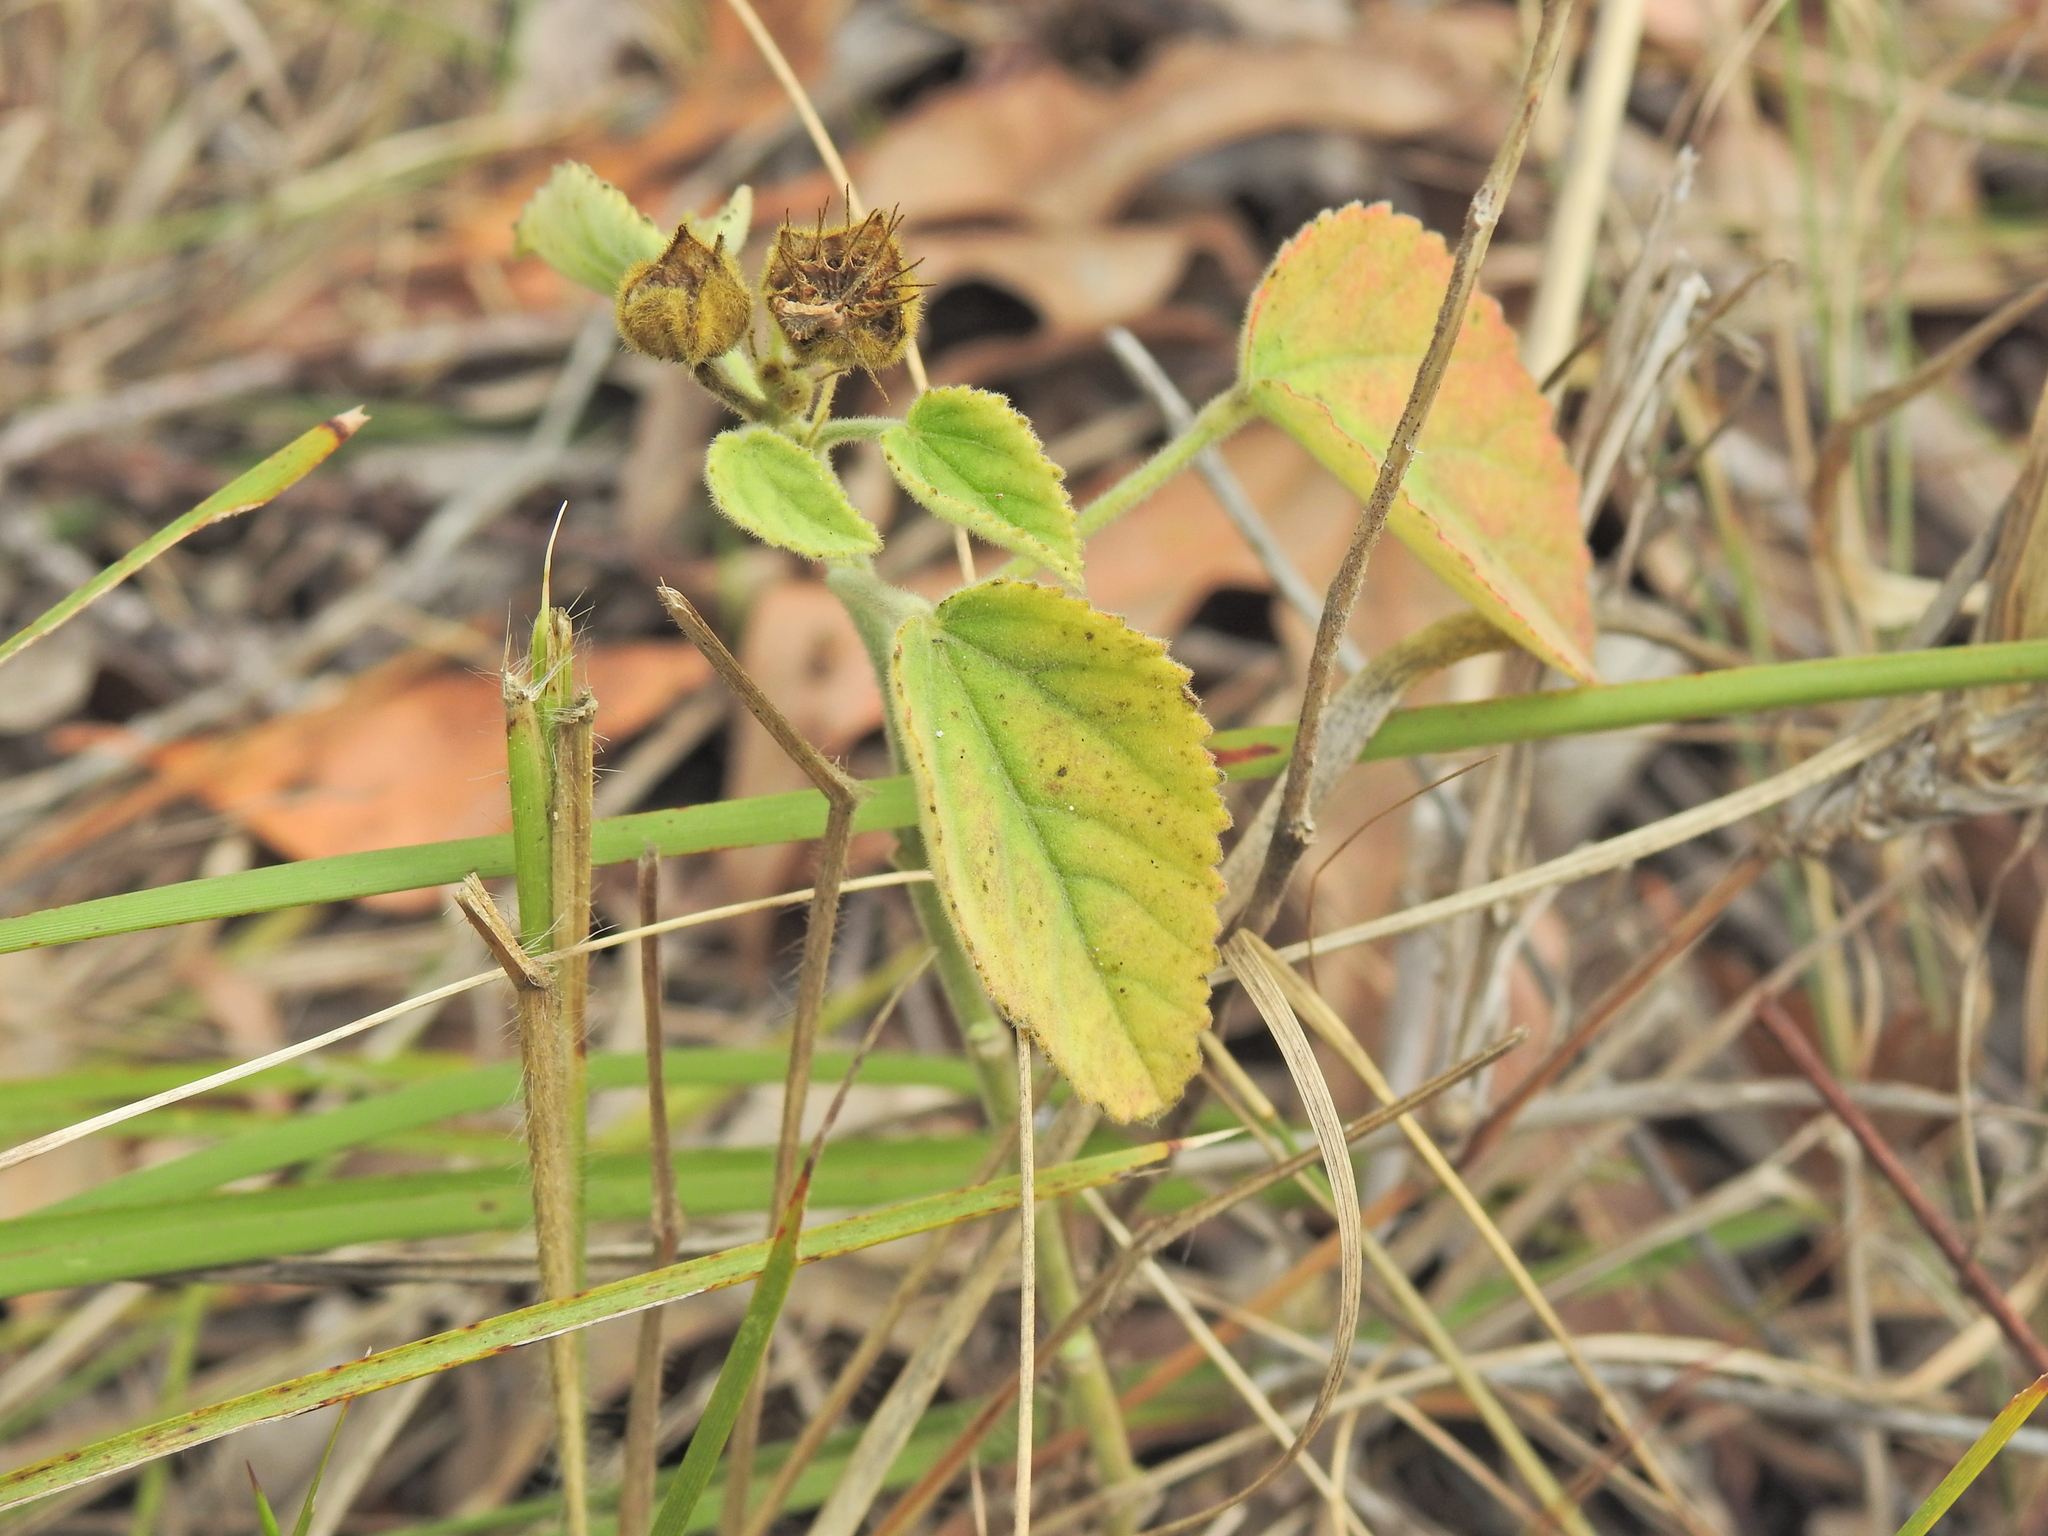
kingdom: Plantae
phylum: Tracheophyta
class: Magnoliopsida
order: Malvales
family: Malvaceae
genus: Sida
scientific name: Sida cordifolia
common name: Ilima
